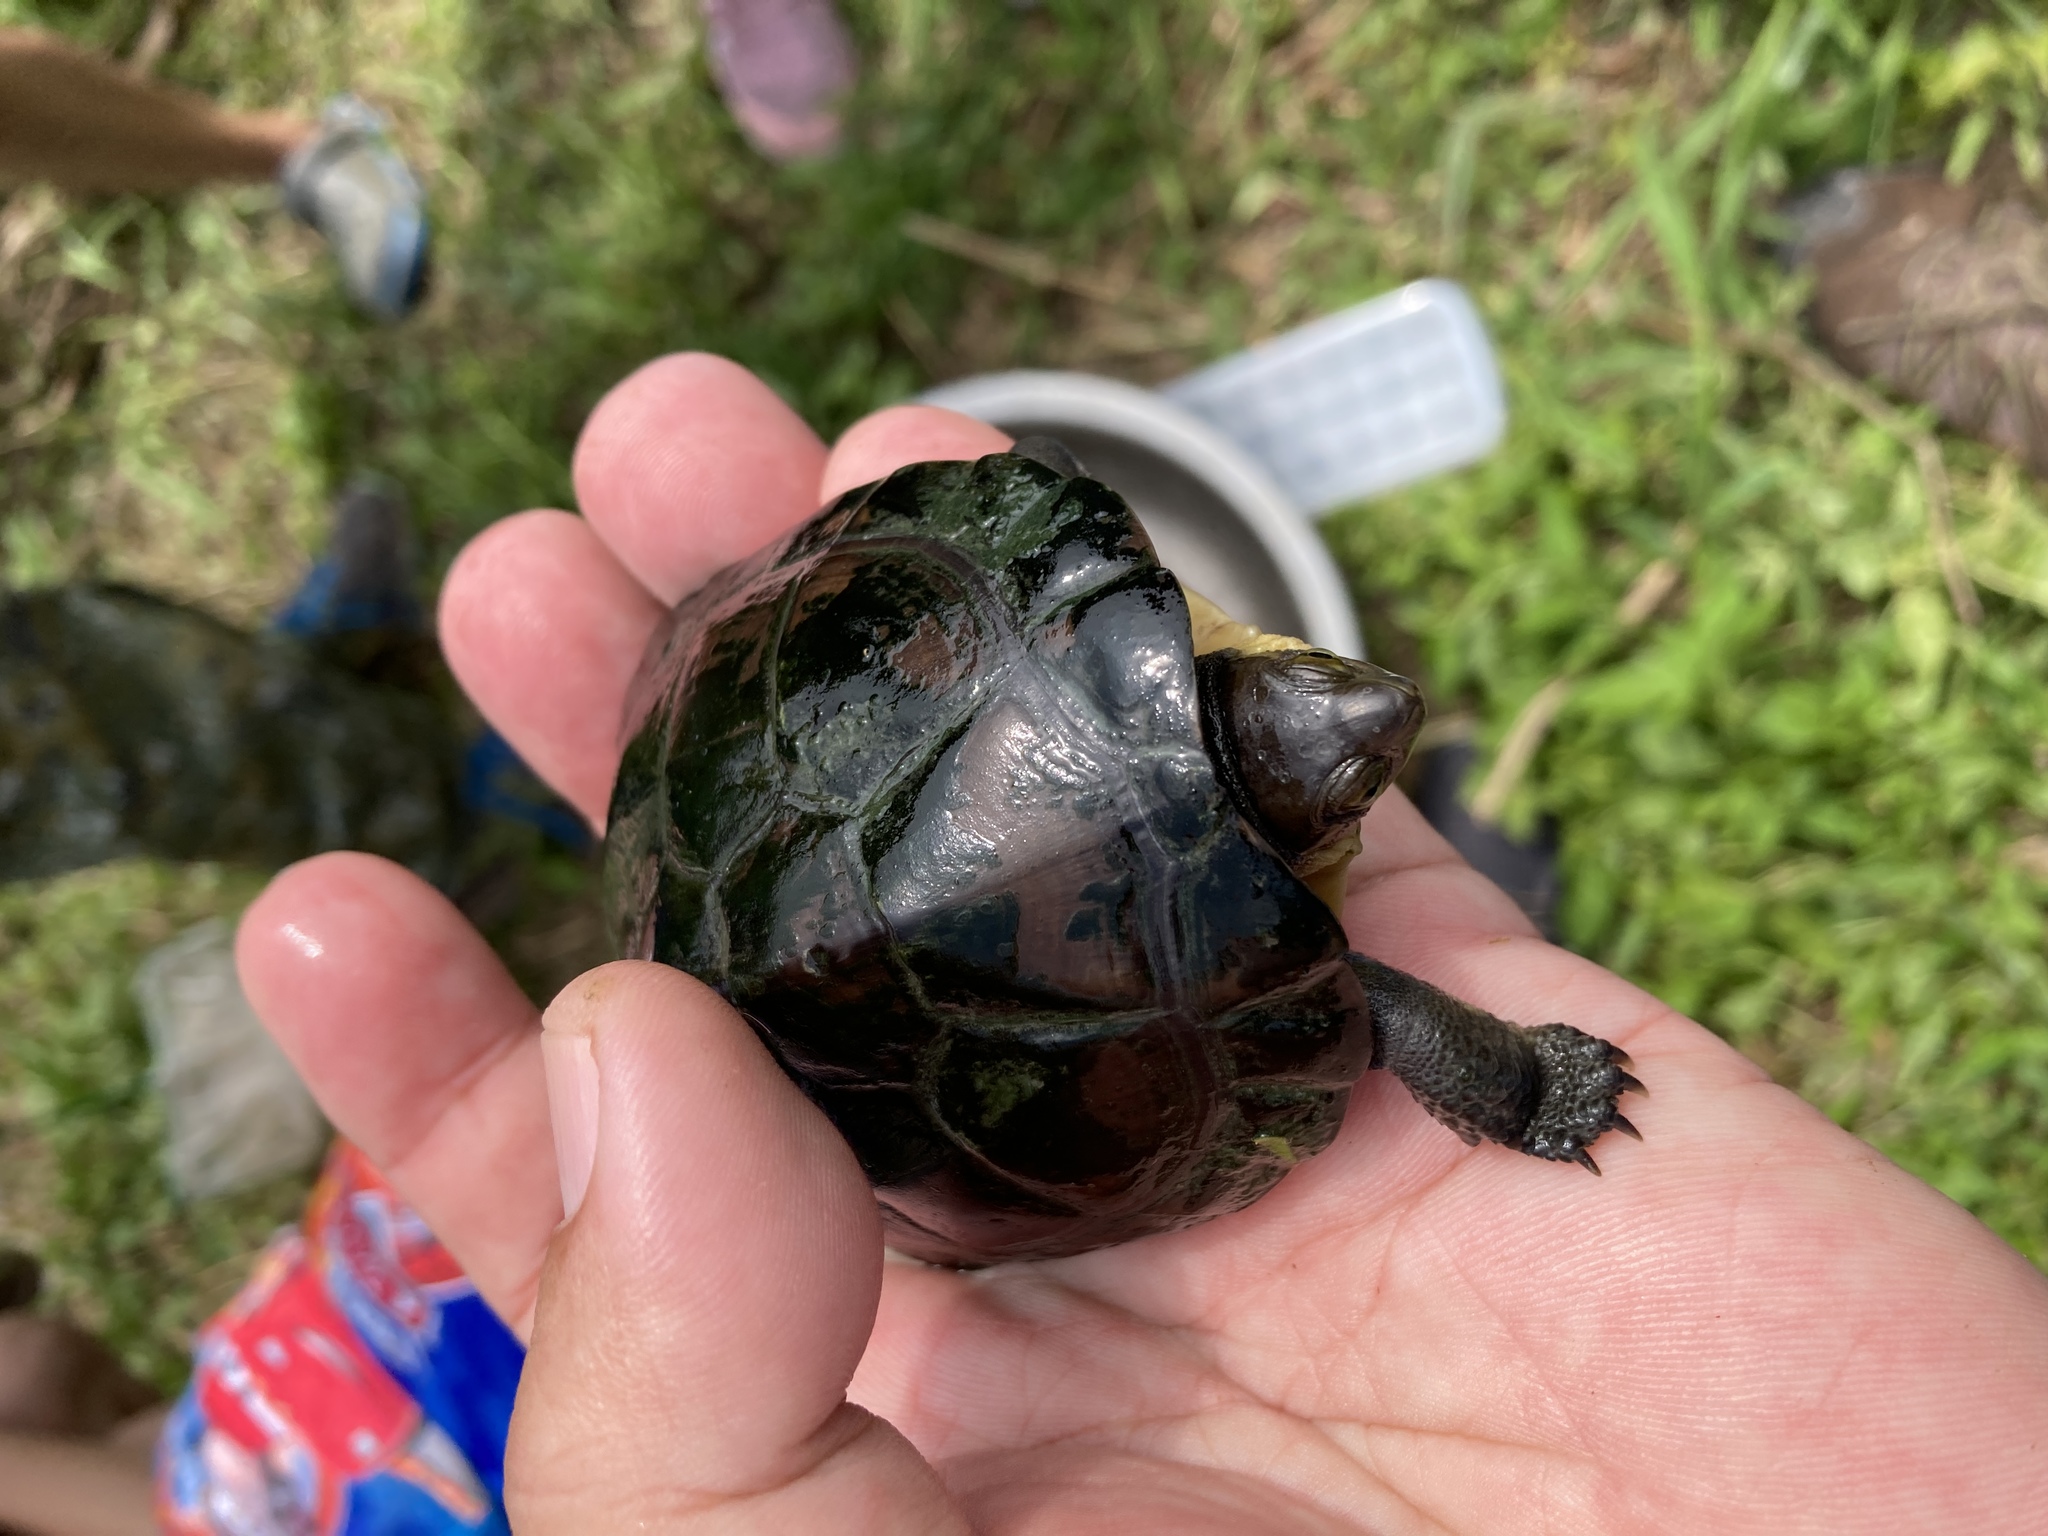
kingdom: Animalia
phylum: Chordata
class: Testudines
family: Geoemydidae
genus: Mauremys
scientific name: Mauremys mutica
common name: Yellow pond turtle
